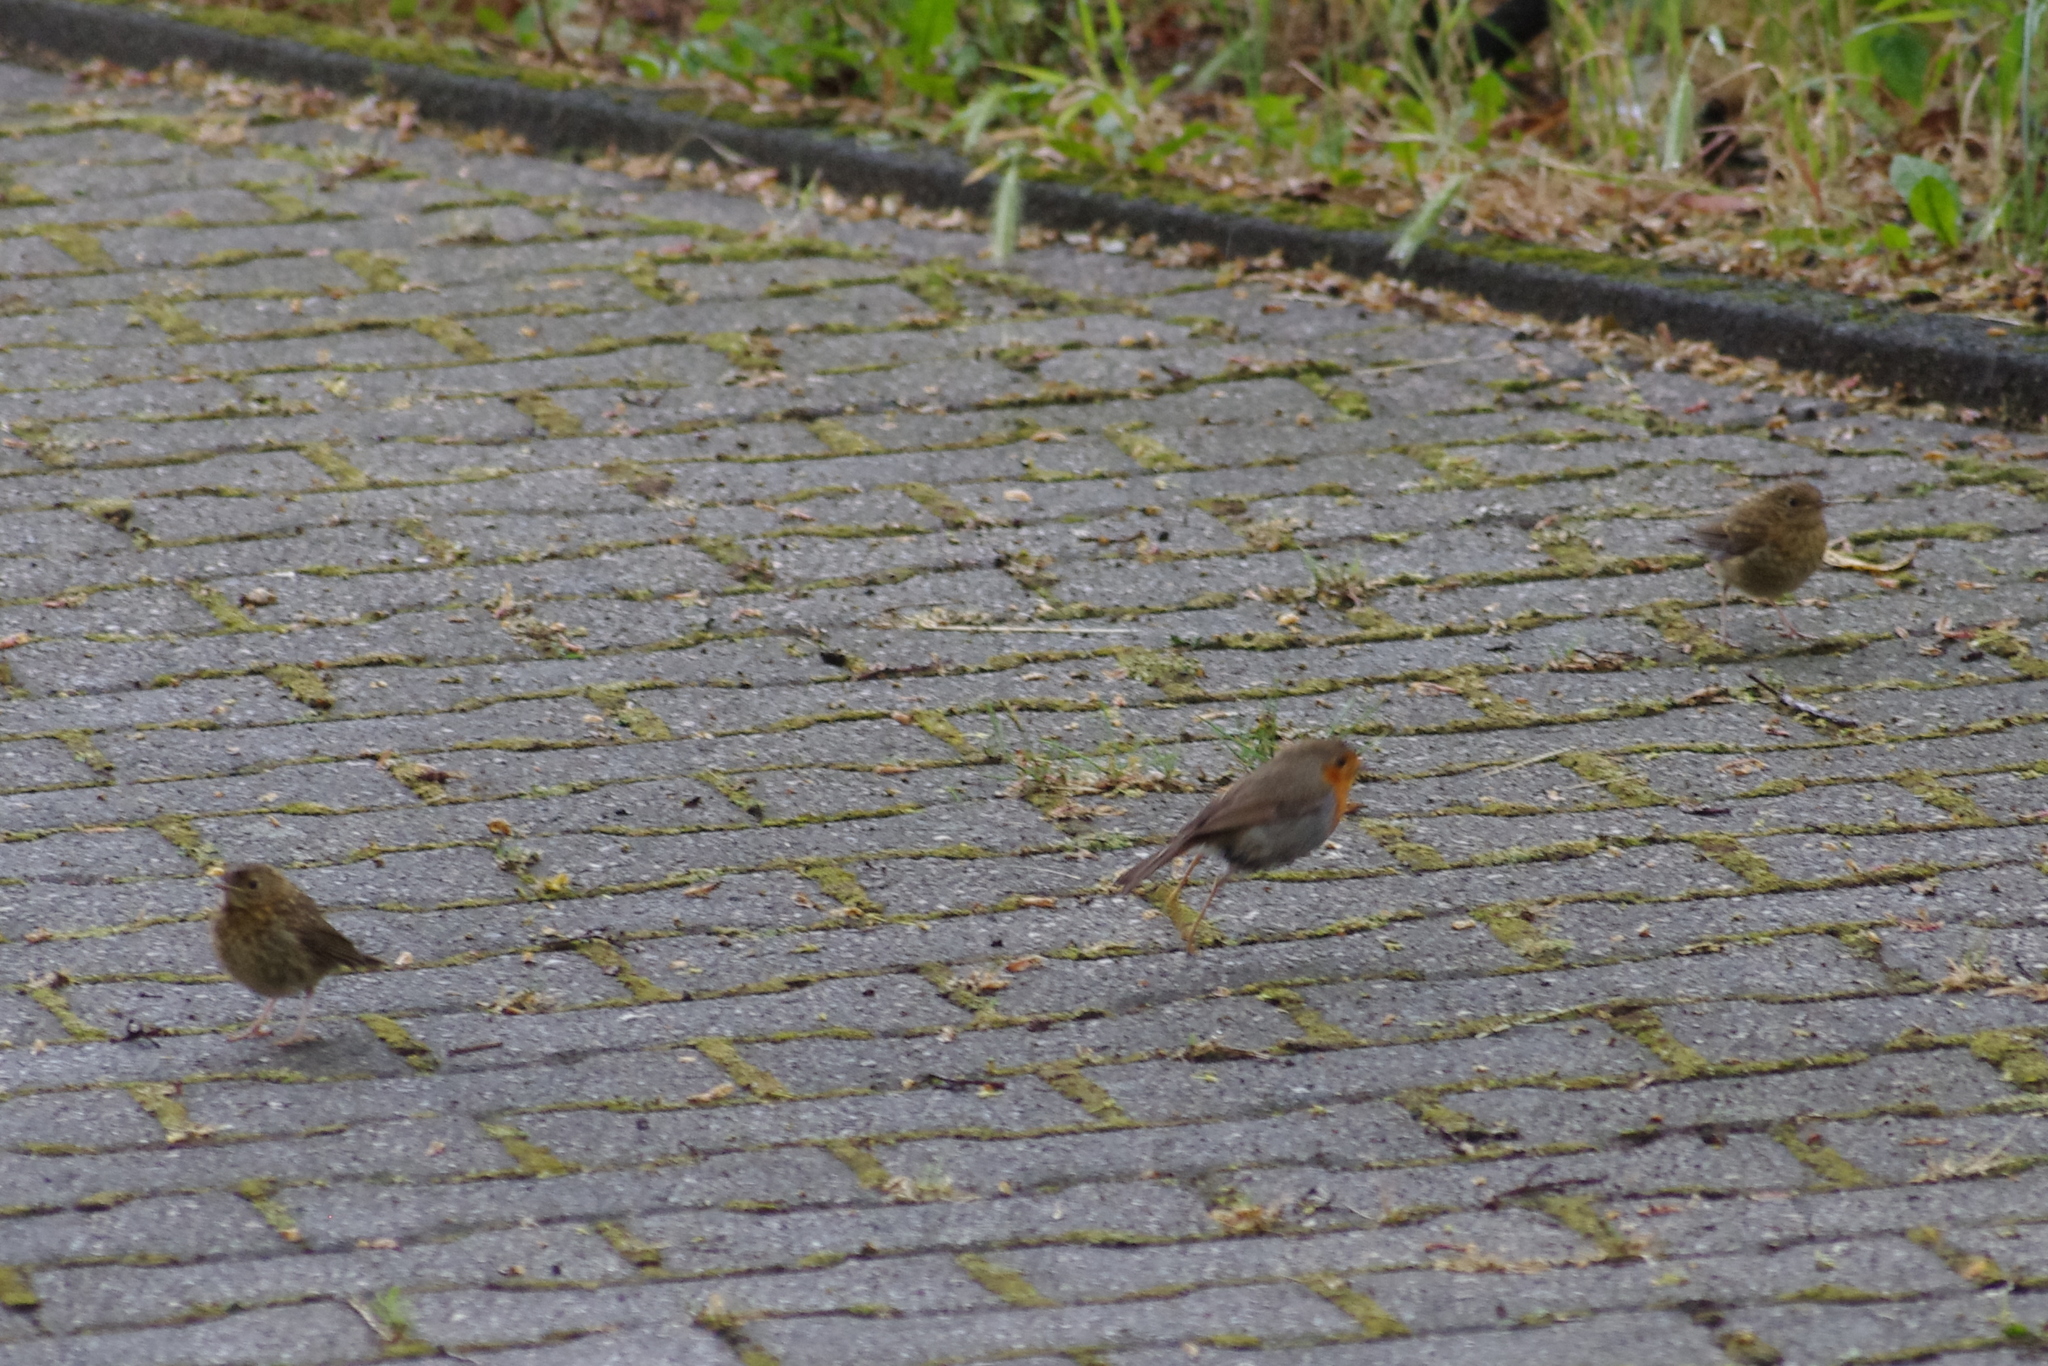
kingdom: Animalia
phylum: Chordata
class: Aves
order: Passeriformes
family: Muscicapidae
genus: Erithacus
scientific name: Erithacus rubecula
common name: European robin
